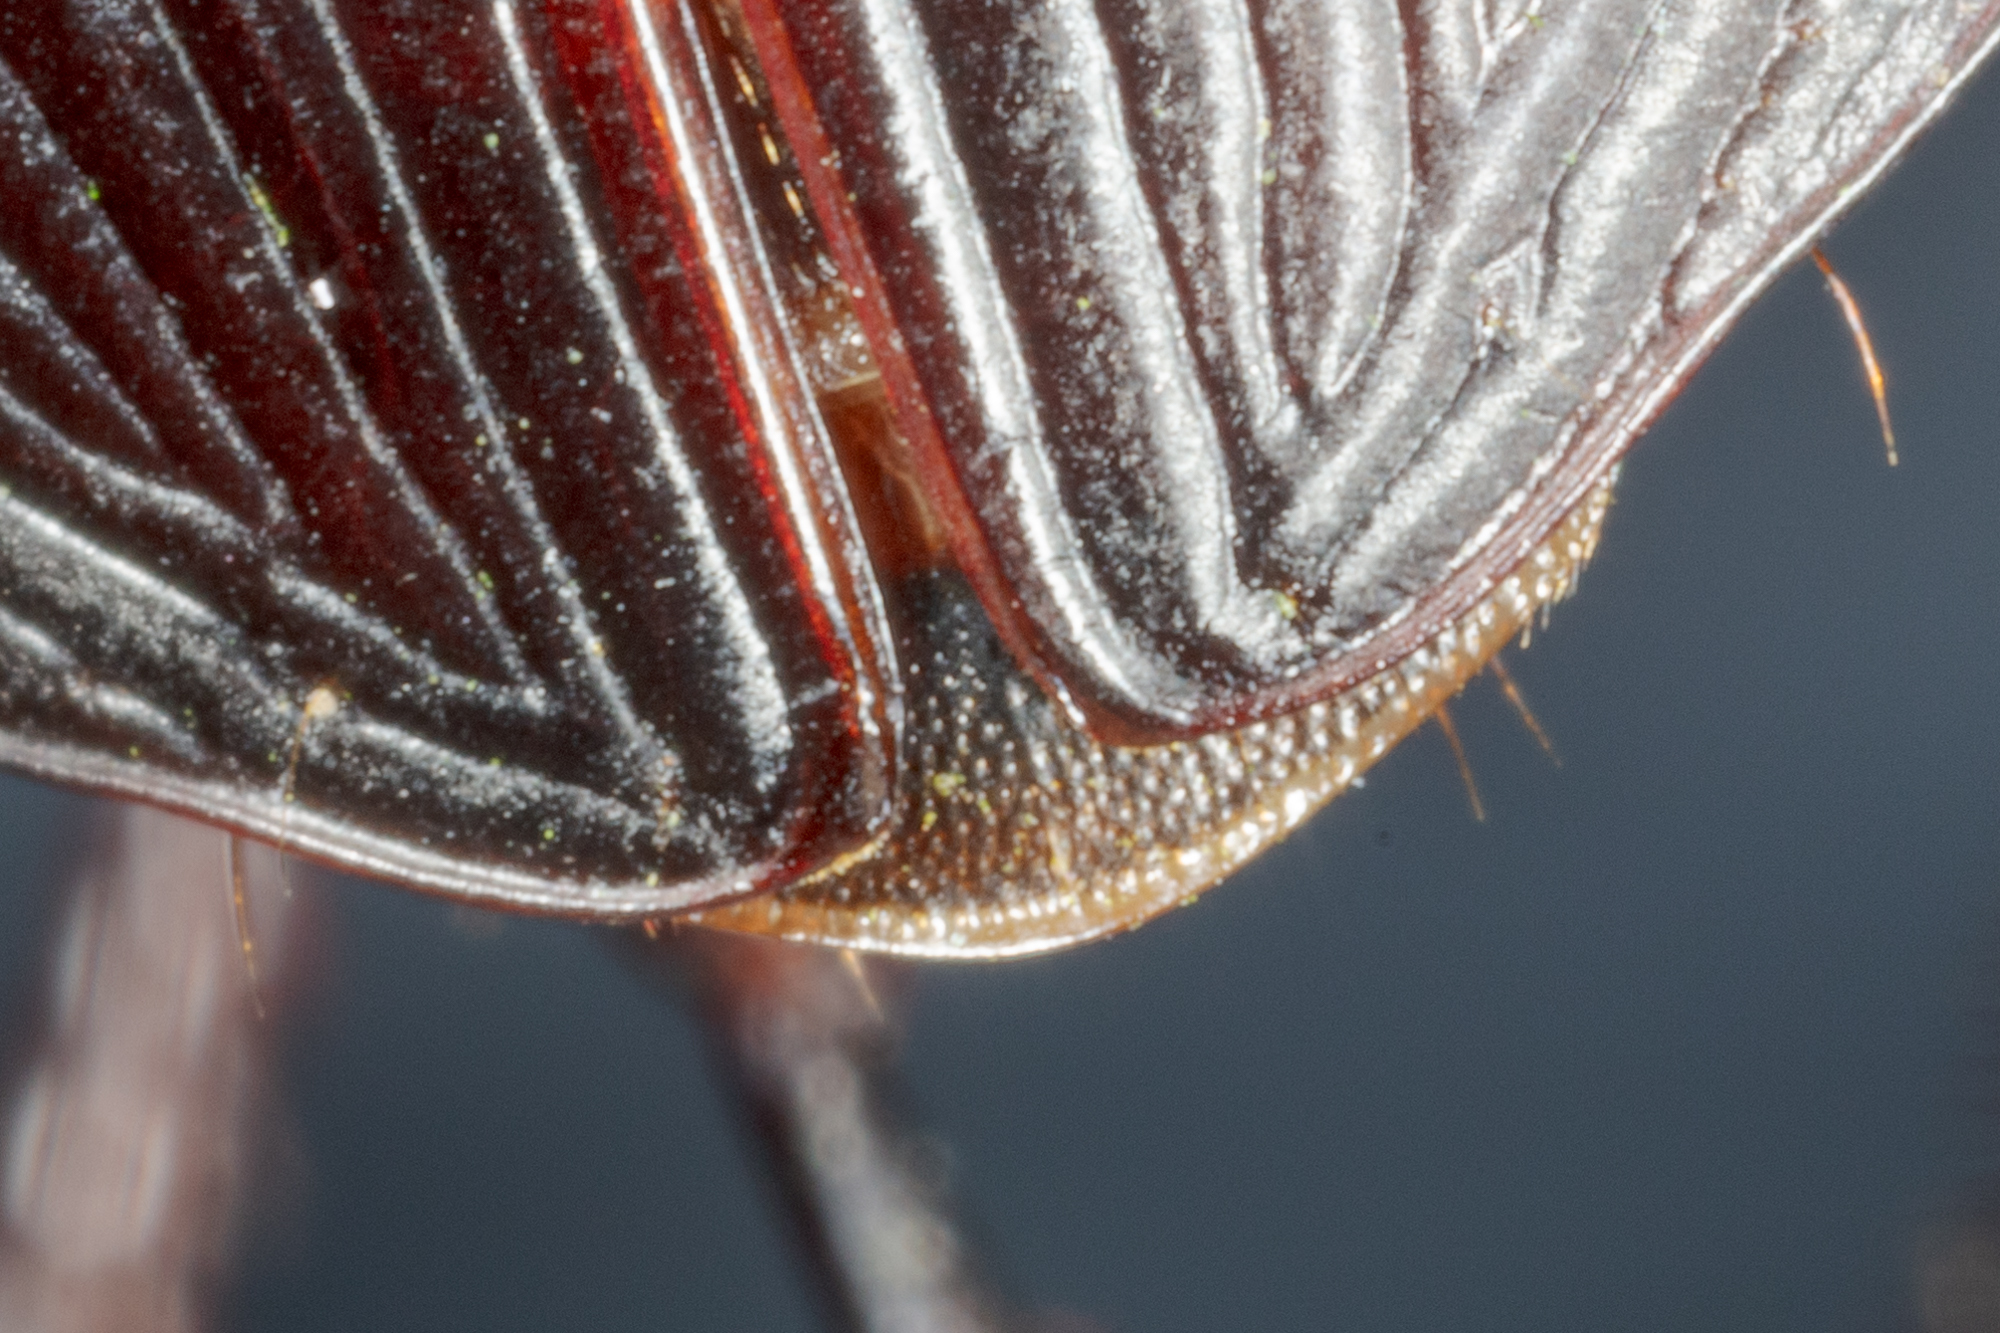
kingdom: Animalia
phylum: Arthropoda
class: Insecta
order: Coleoptera
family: Carabidae
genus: Harpalus
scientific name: Harpalus katiae
